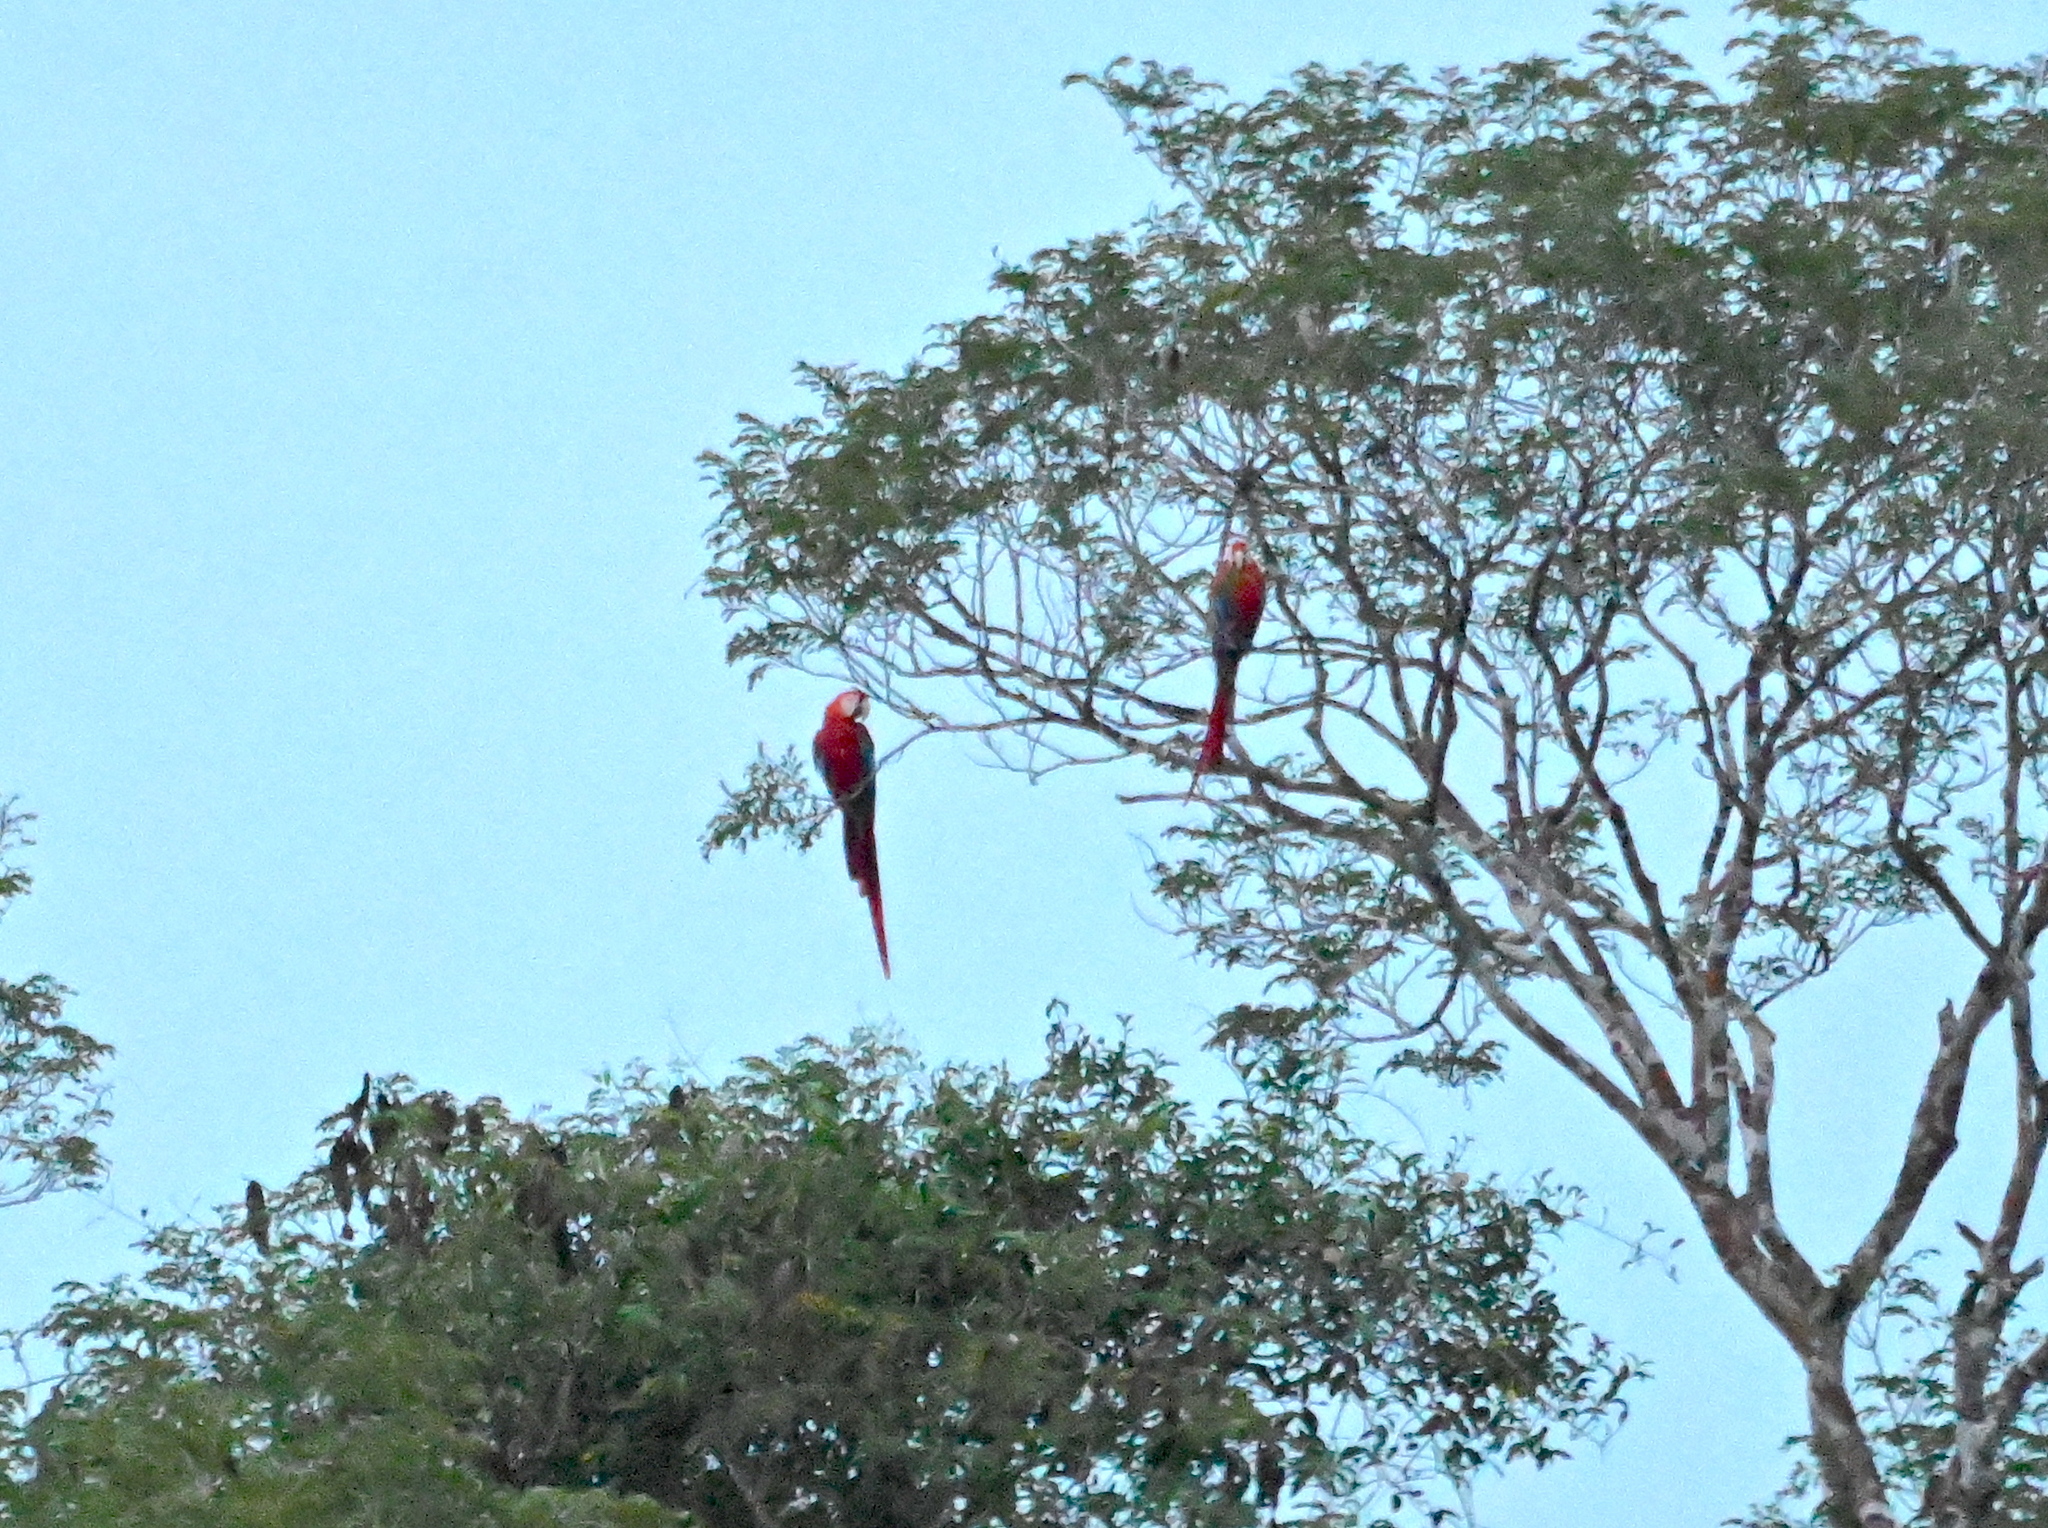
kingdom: Animalia
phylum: Chordata
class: Aves
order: Psittaciformes
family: Psittacidae
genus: Ara
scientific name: Ara chloropterus
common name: Red-and-green macaw
